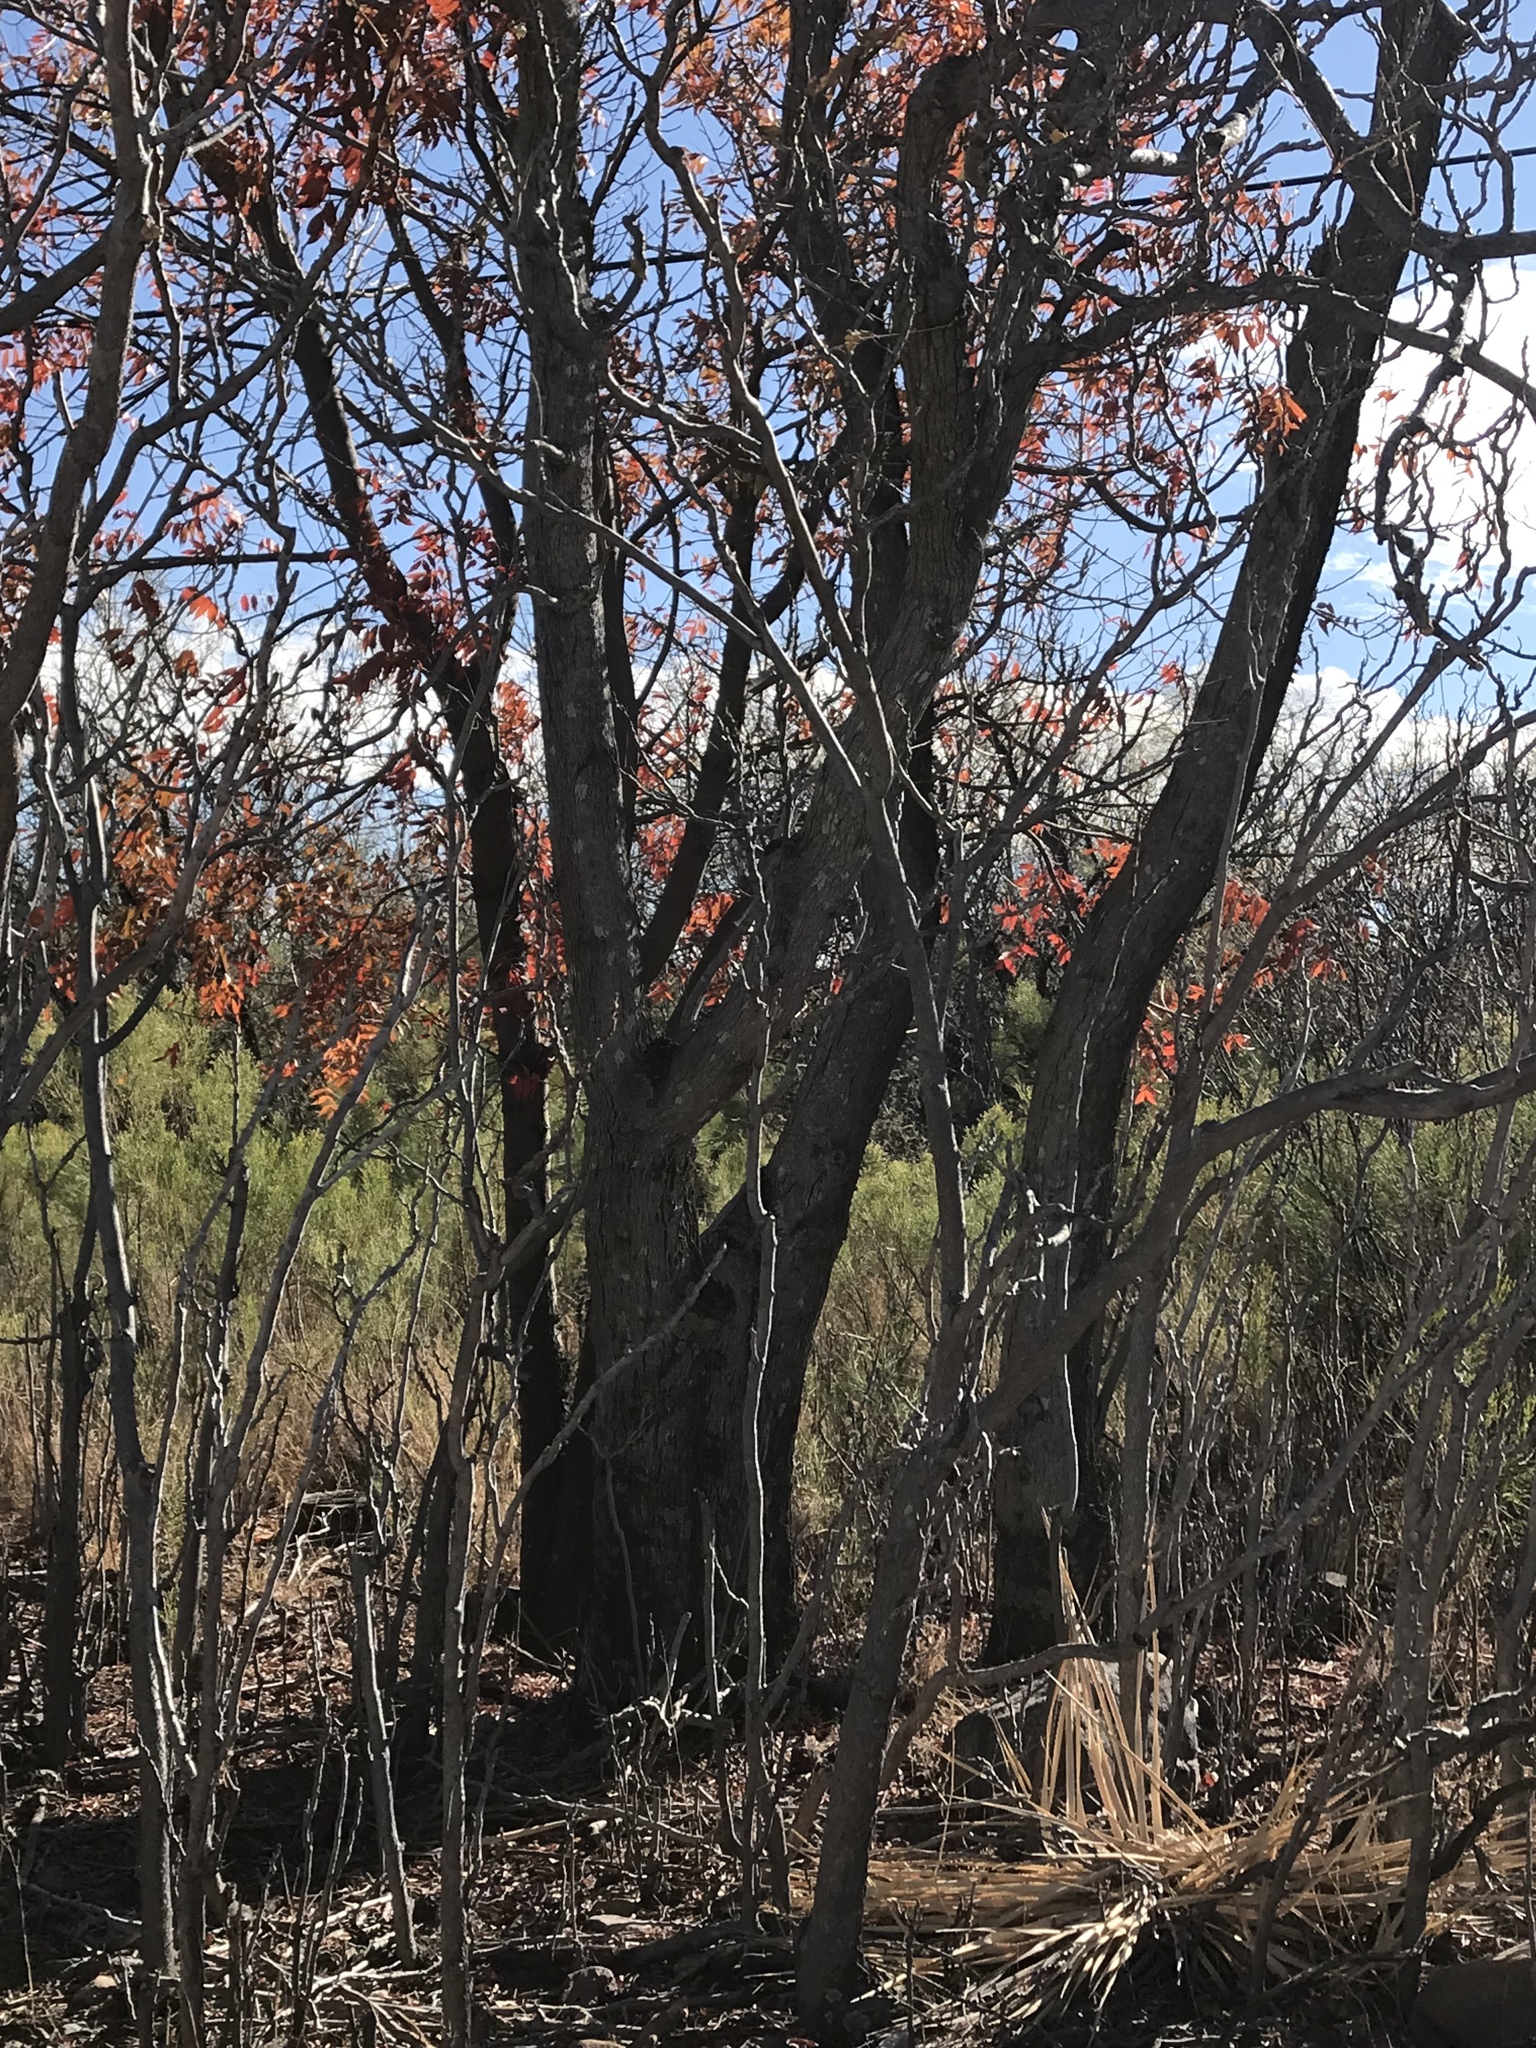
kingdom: Plantae
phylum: Tracheophyta
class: Magnoliopsida
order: Fagales
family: Juglandaceae
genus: Juglans
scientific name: Juglans major
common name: Arizona walnut
